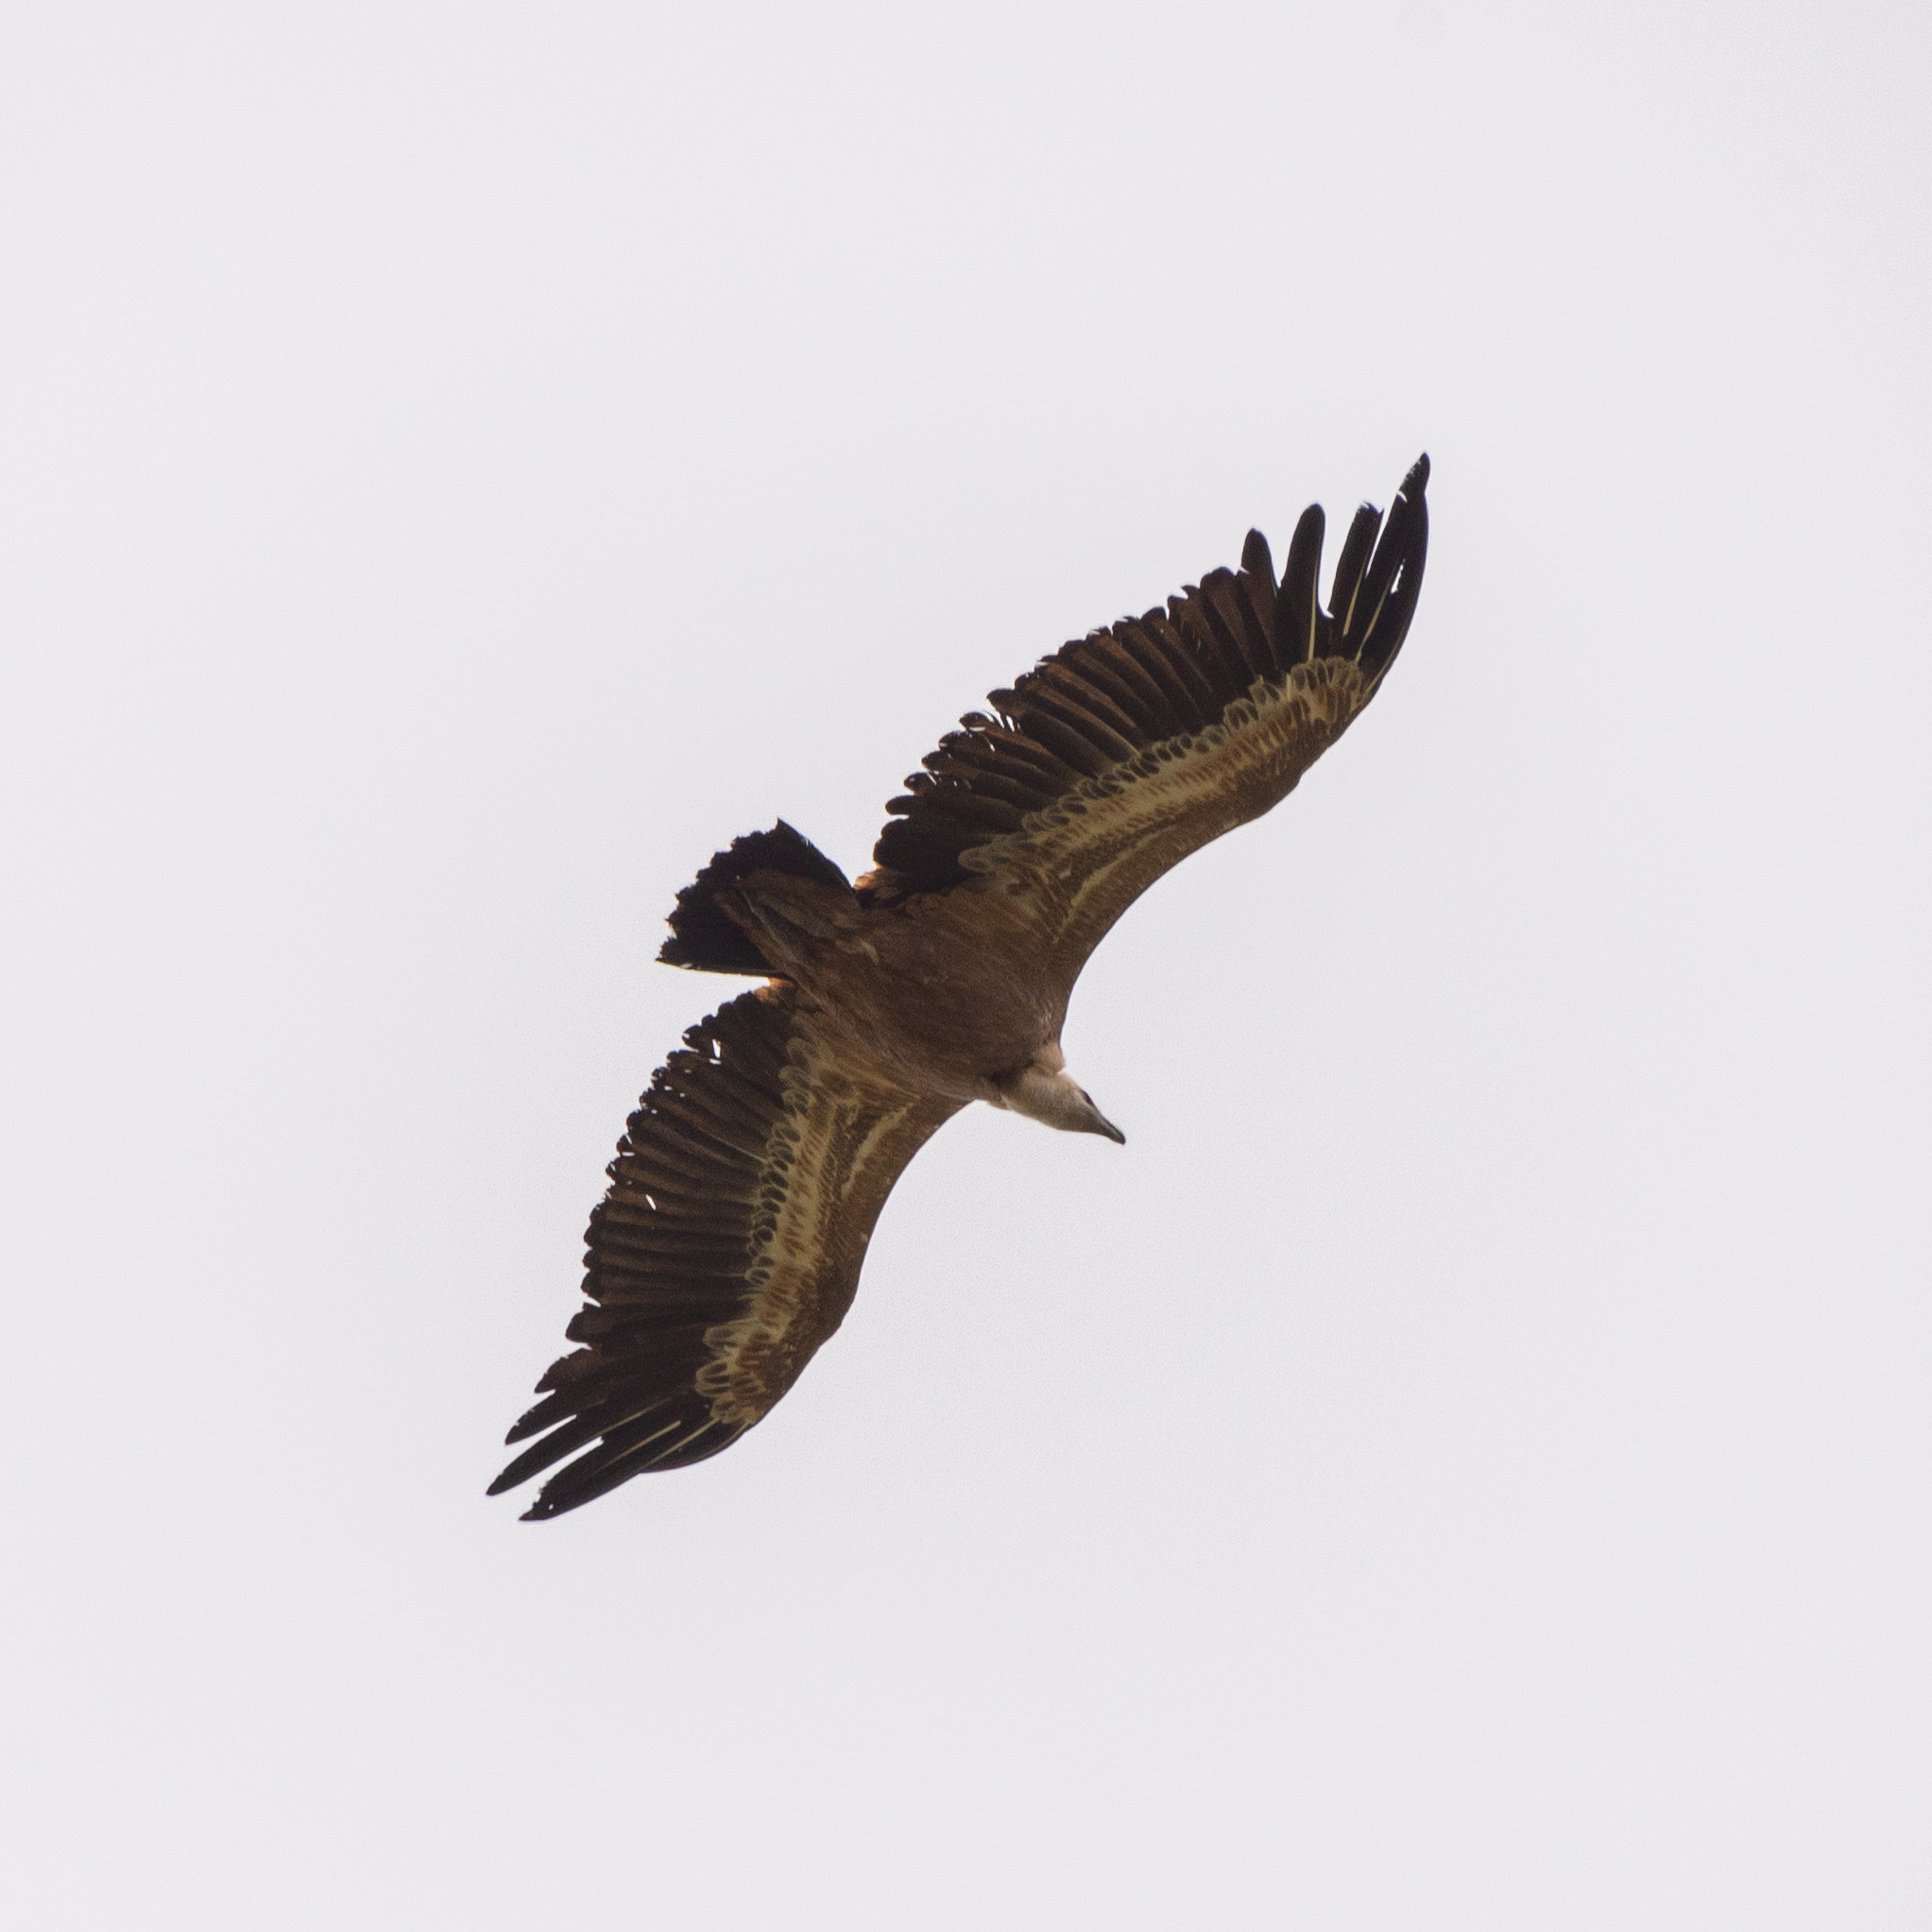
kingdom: Animalia
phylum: Chordata
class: Aves
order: Accipitriformes
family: Accipitridae
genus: Gyps
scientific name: Gyps fulvus
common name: Griffon vulture
